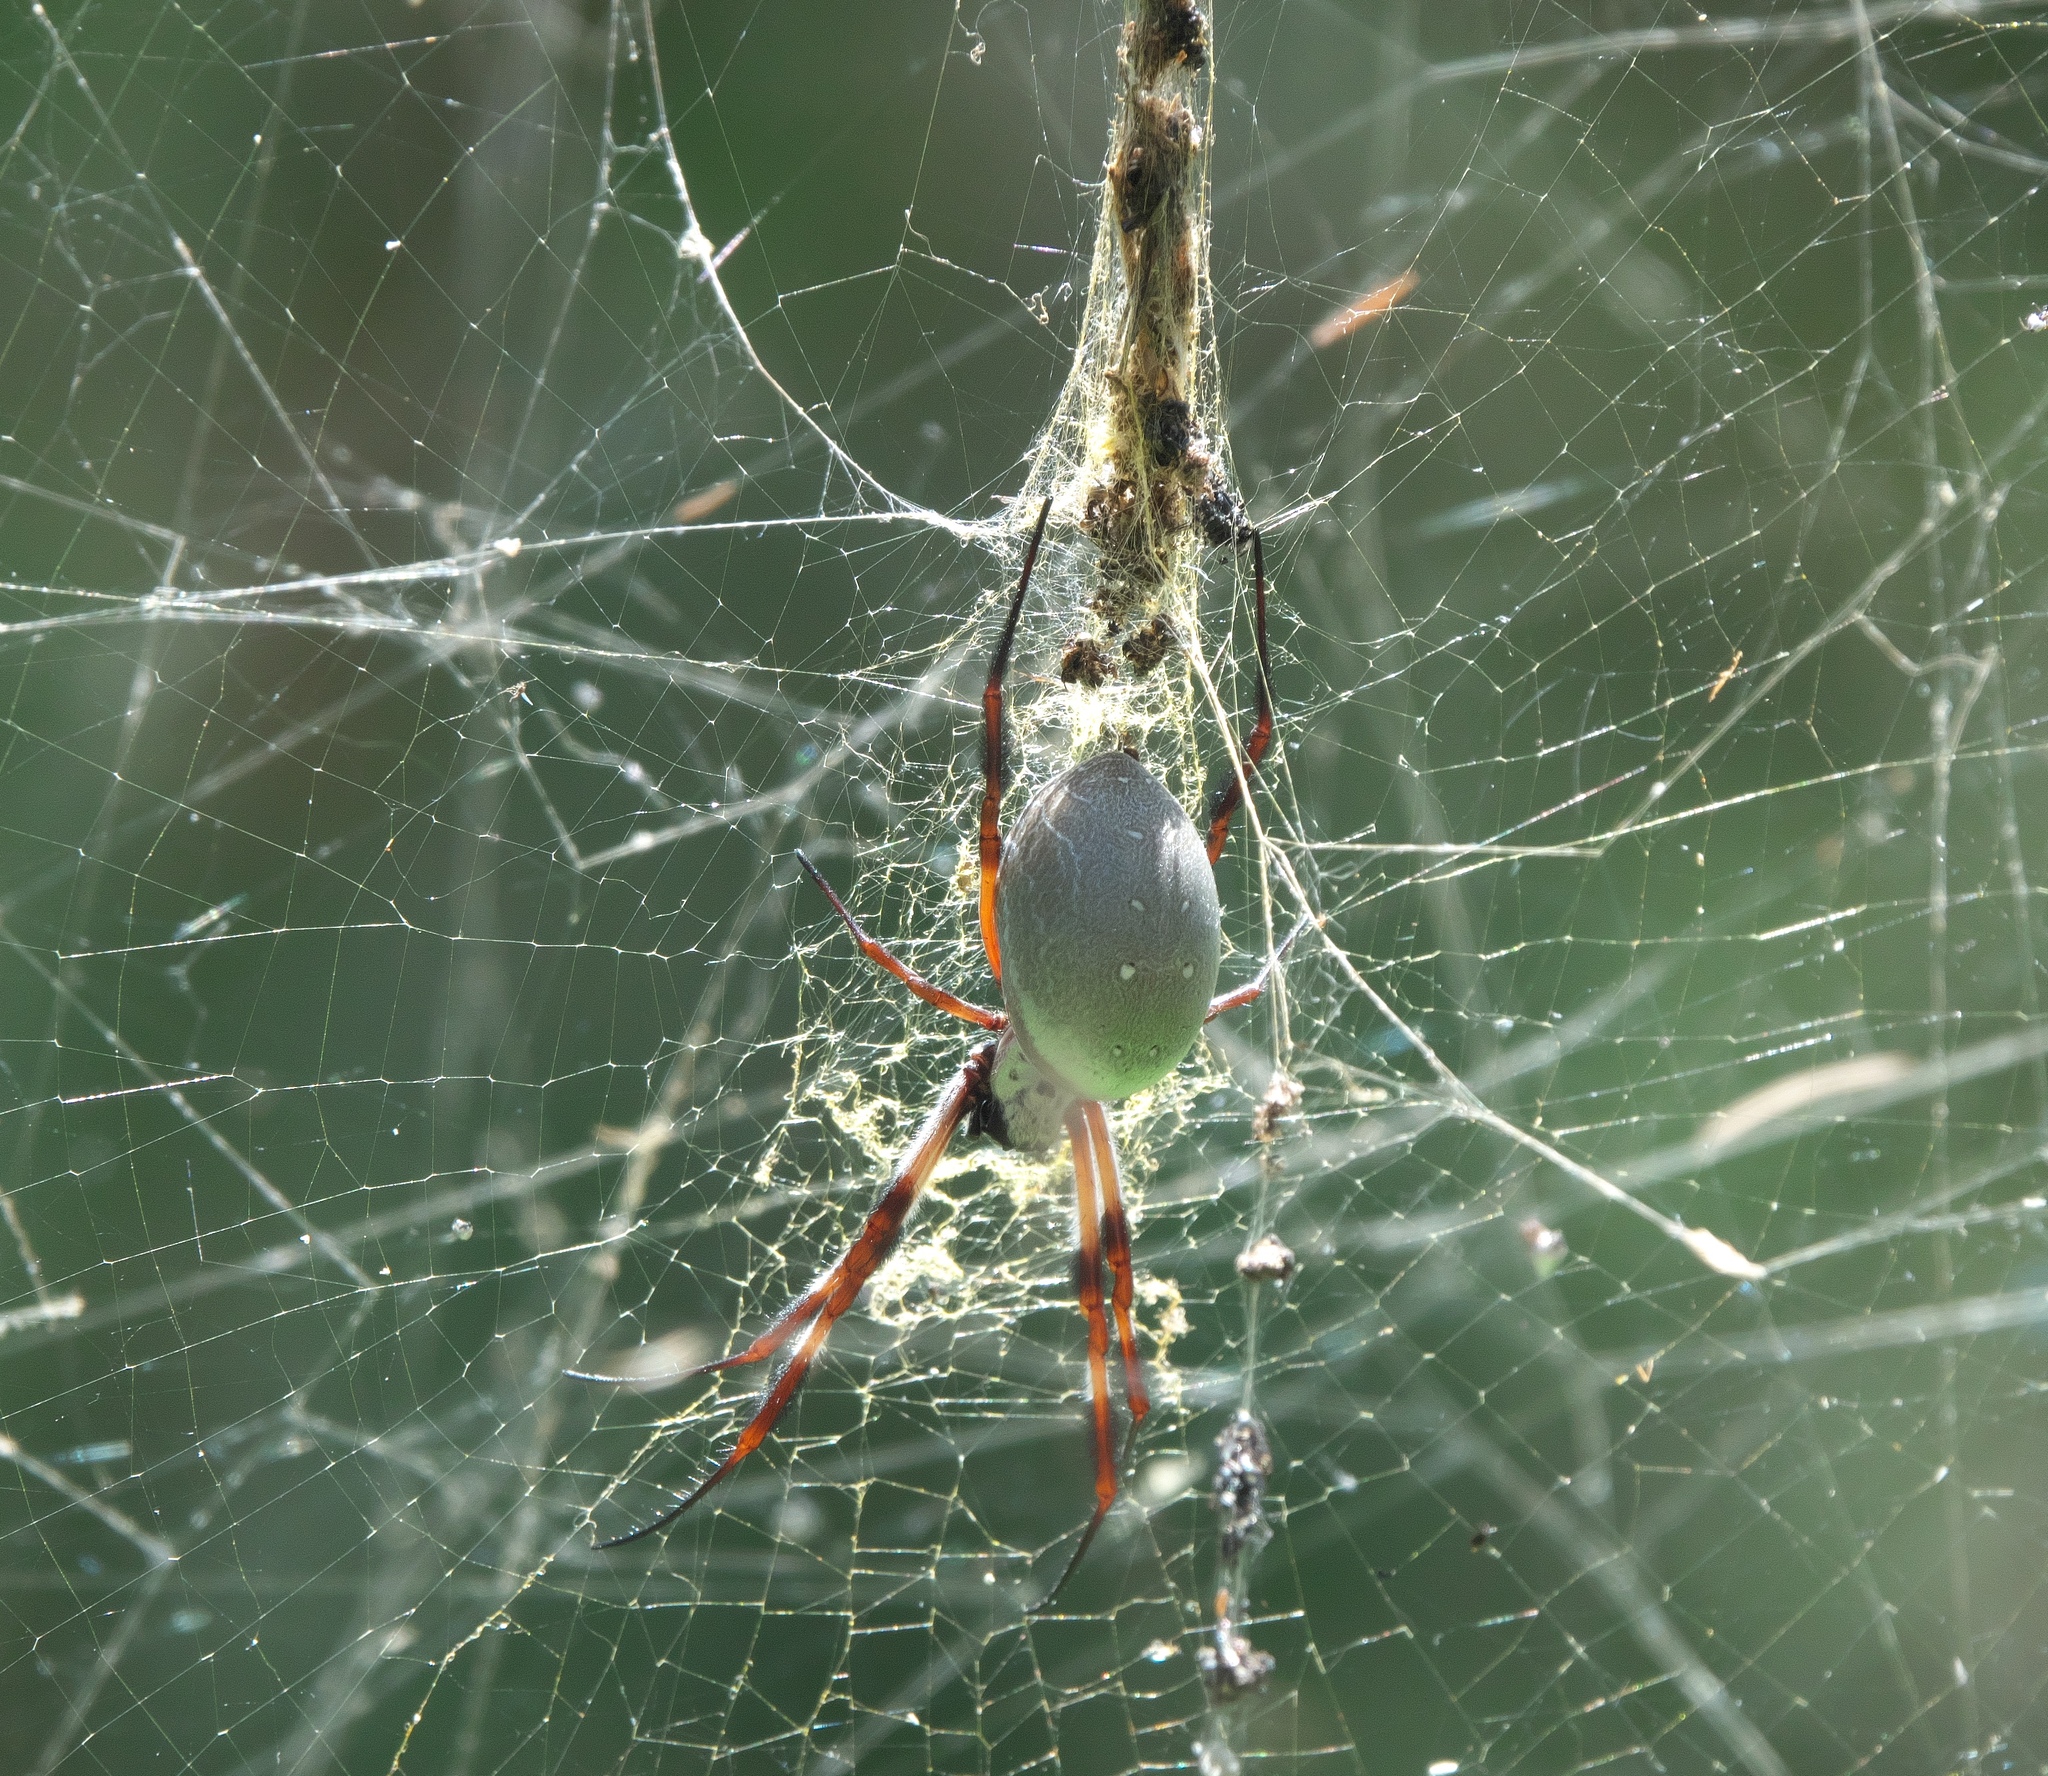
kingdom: Animalia
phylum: Arthropoda
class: Arachnida
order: Araneae
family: Araneidae
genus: Trichonephila
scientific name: Trichonephila edulis
